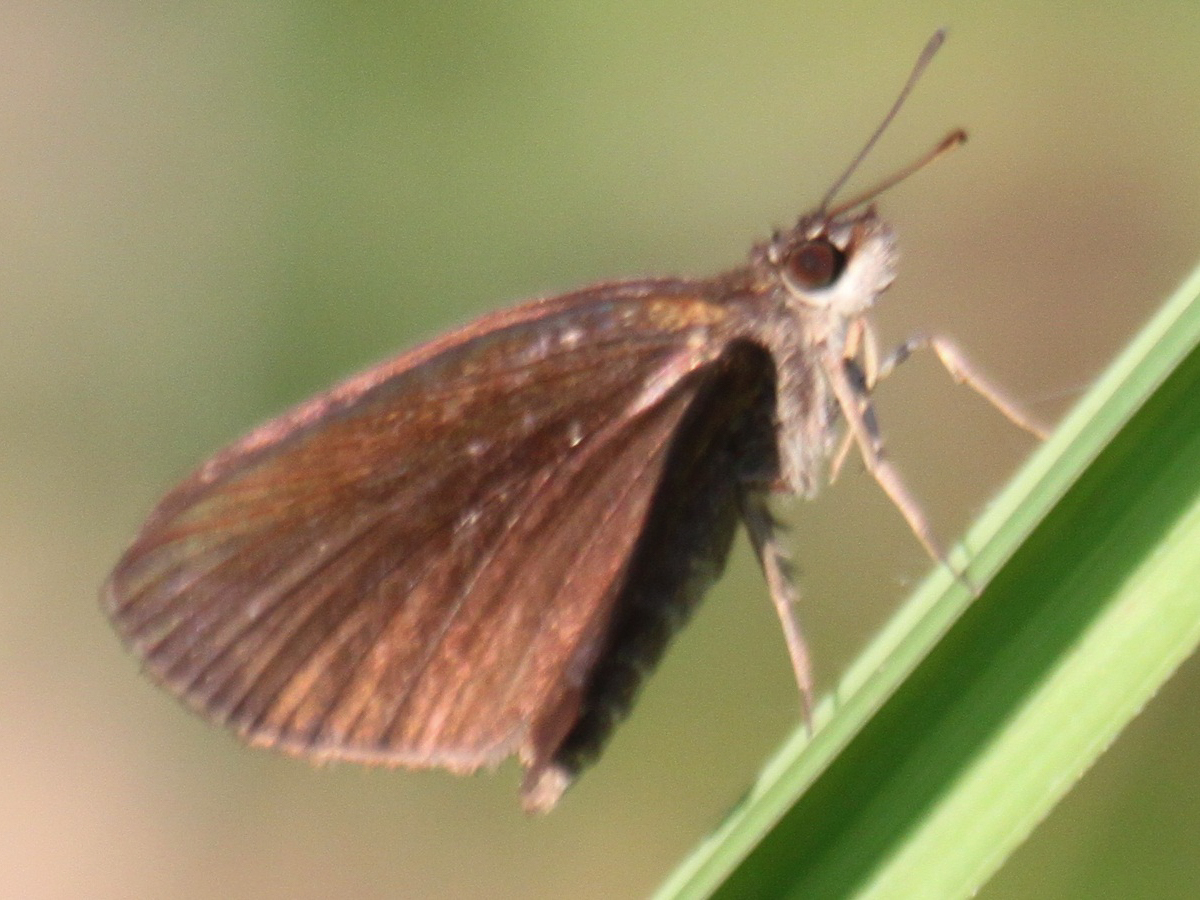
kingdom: Animalia
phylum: Arthropoda
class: Insecta
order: Lepidoptera
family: Hesperiidae
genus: Astictopterus
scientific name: Astictopterus jama
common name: Forest hopper
